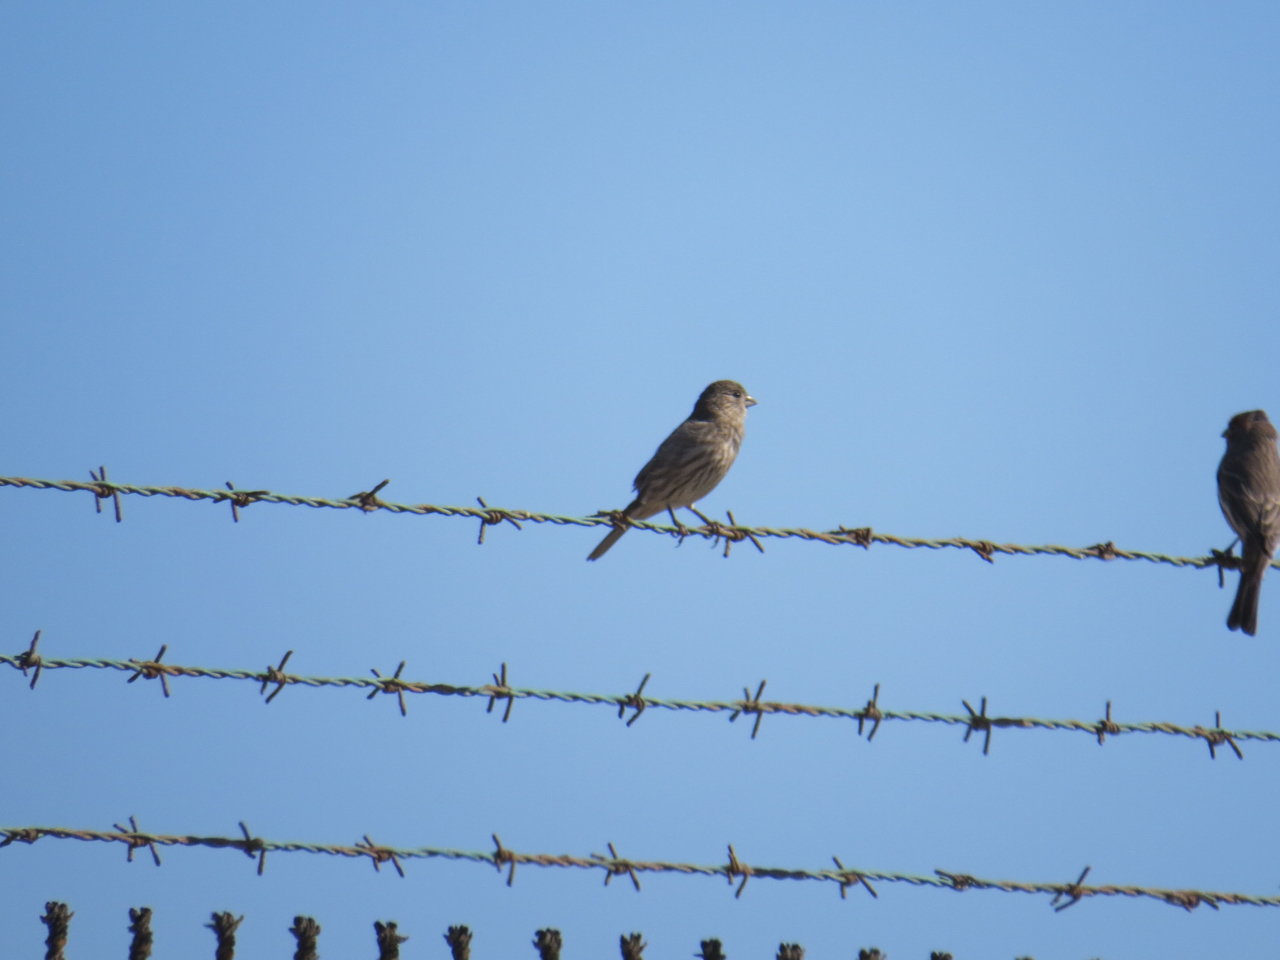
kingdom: Animalia
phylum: Chordata
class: Aves
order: Passeriformes
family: Fringillidae
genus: Haemorhous
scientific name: Haemorhous mexicanus
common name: House finch
